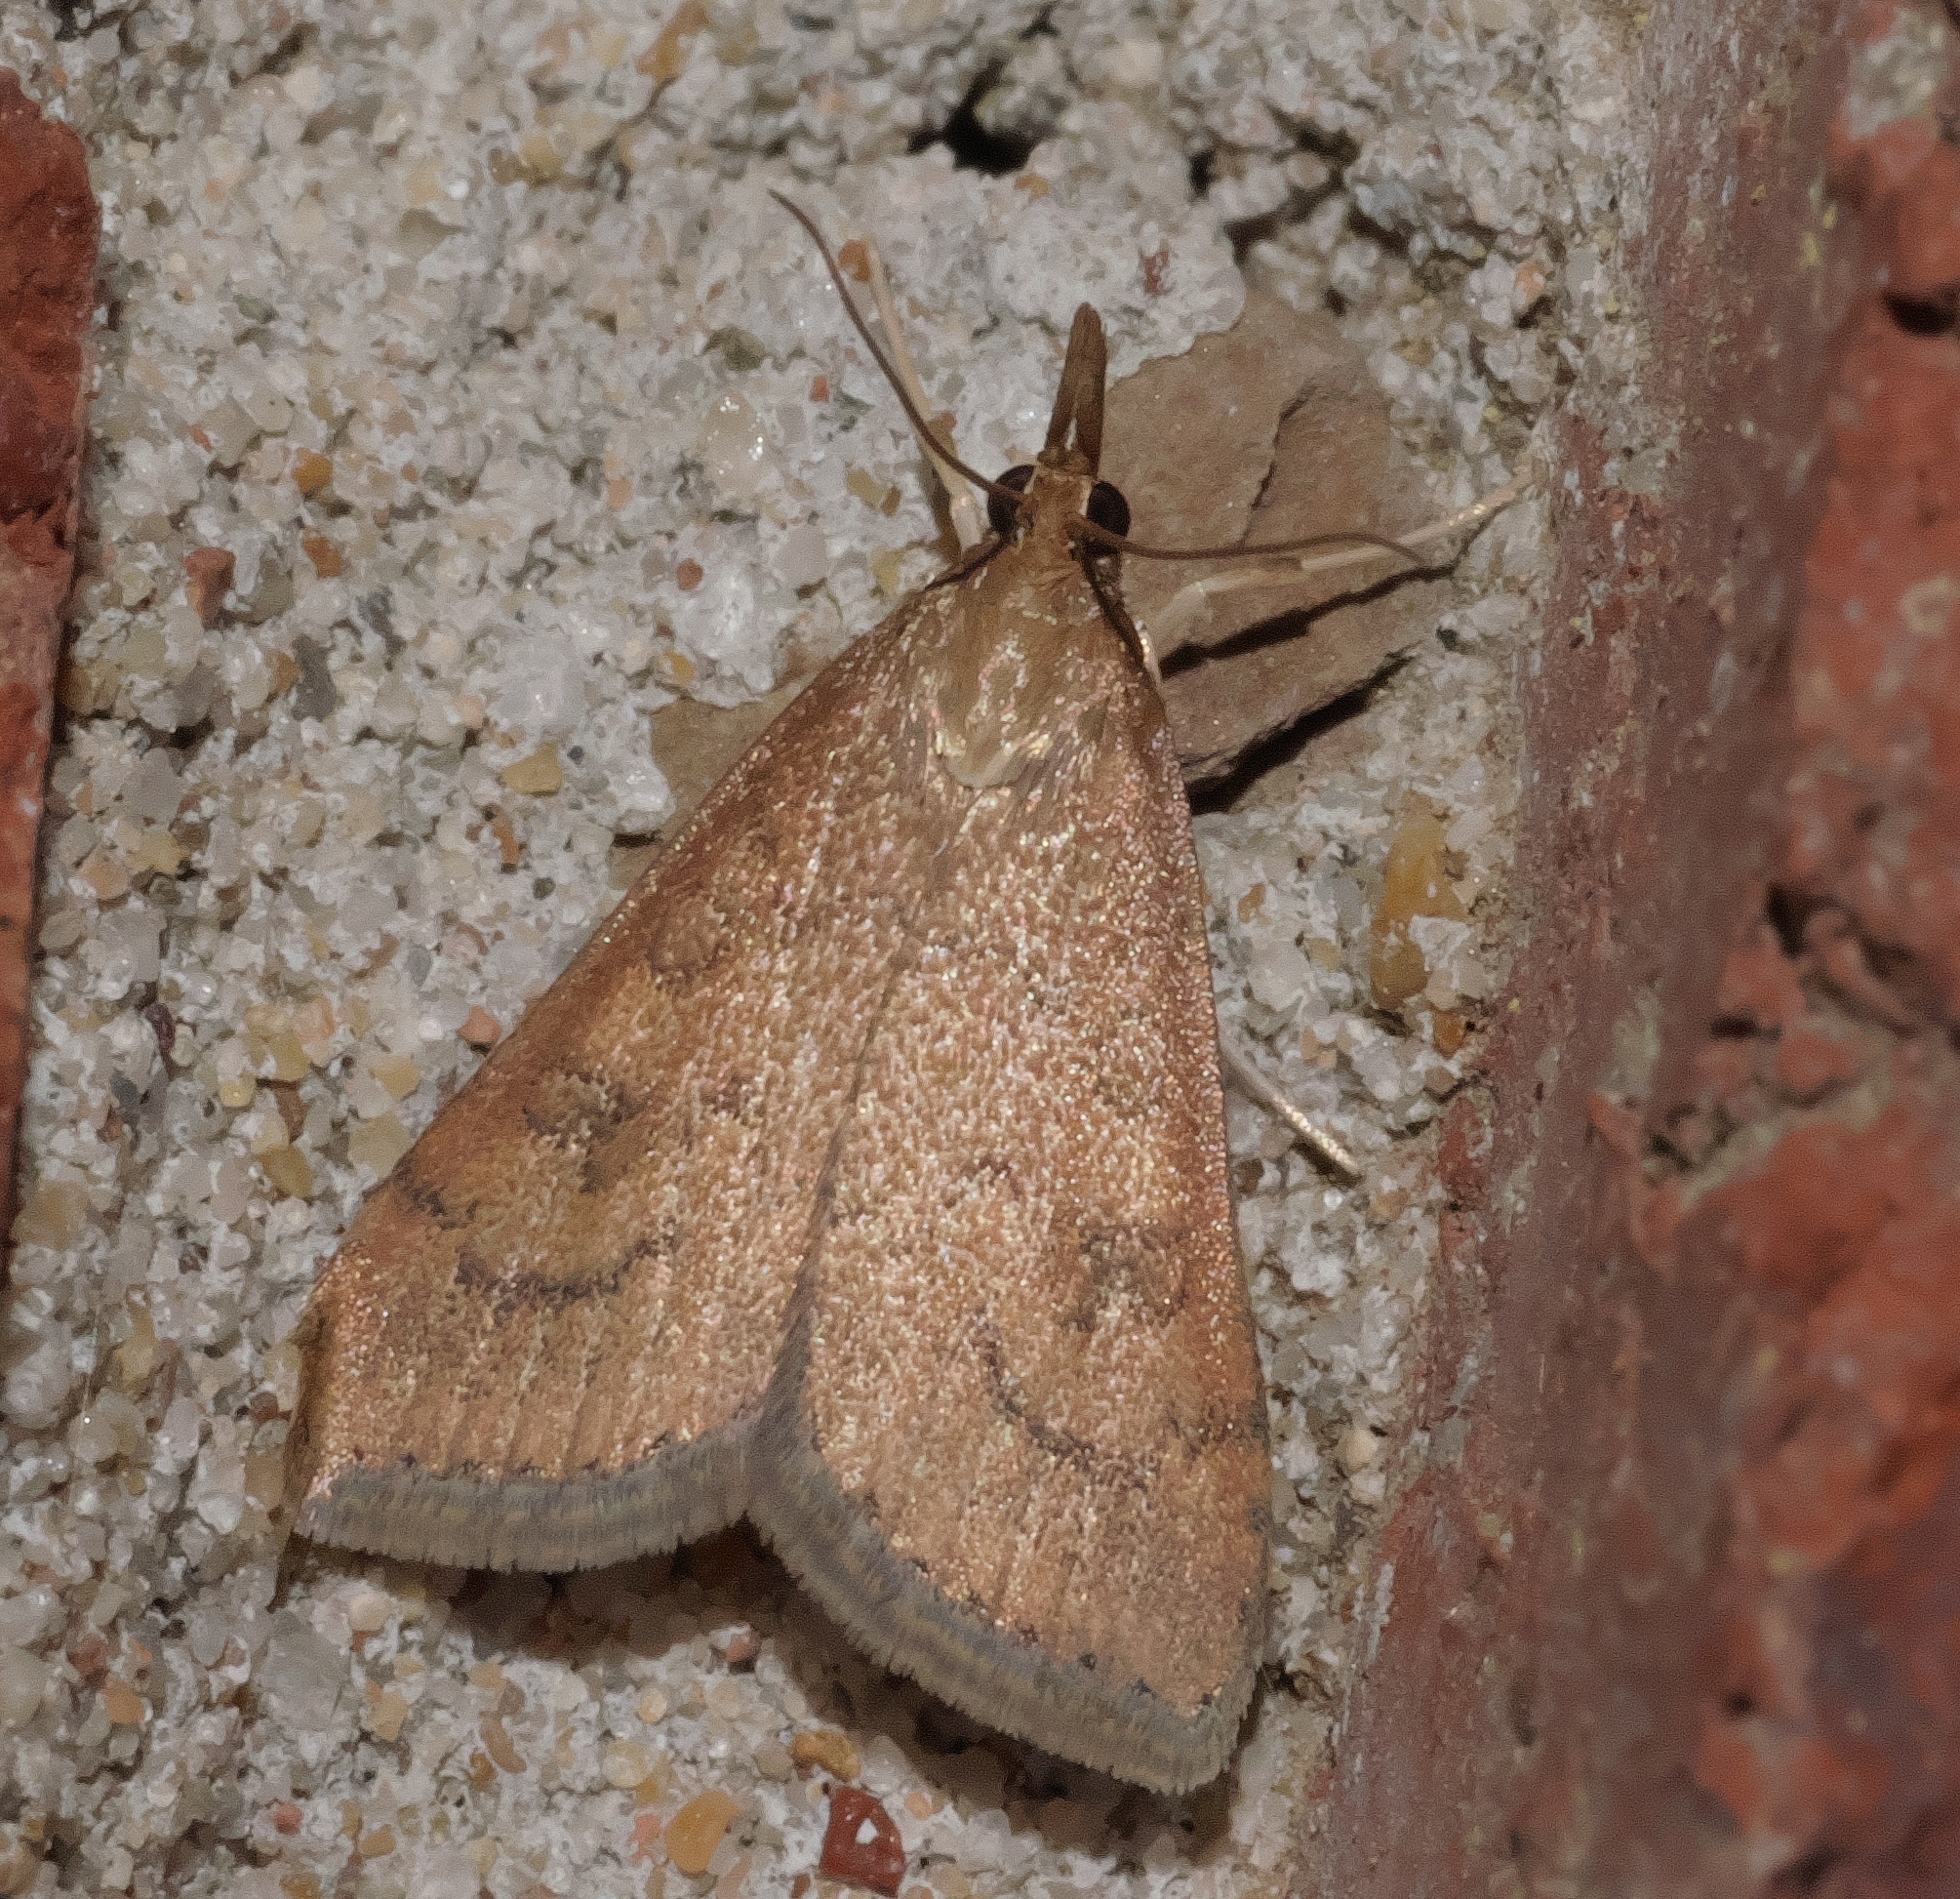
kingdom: Animalia
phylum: Arthropoda
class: Insecta
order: Lepidoptera
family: Crambidae
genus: Udea
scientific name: Udea rubigalis
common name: Celery leaftier moth
